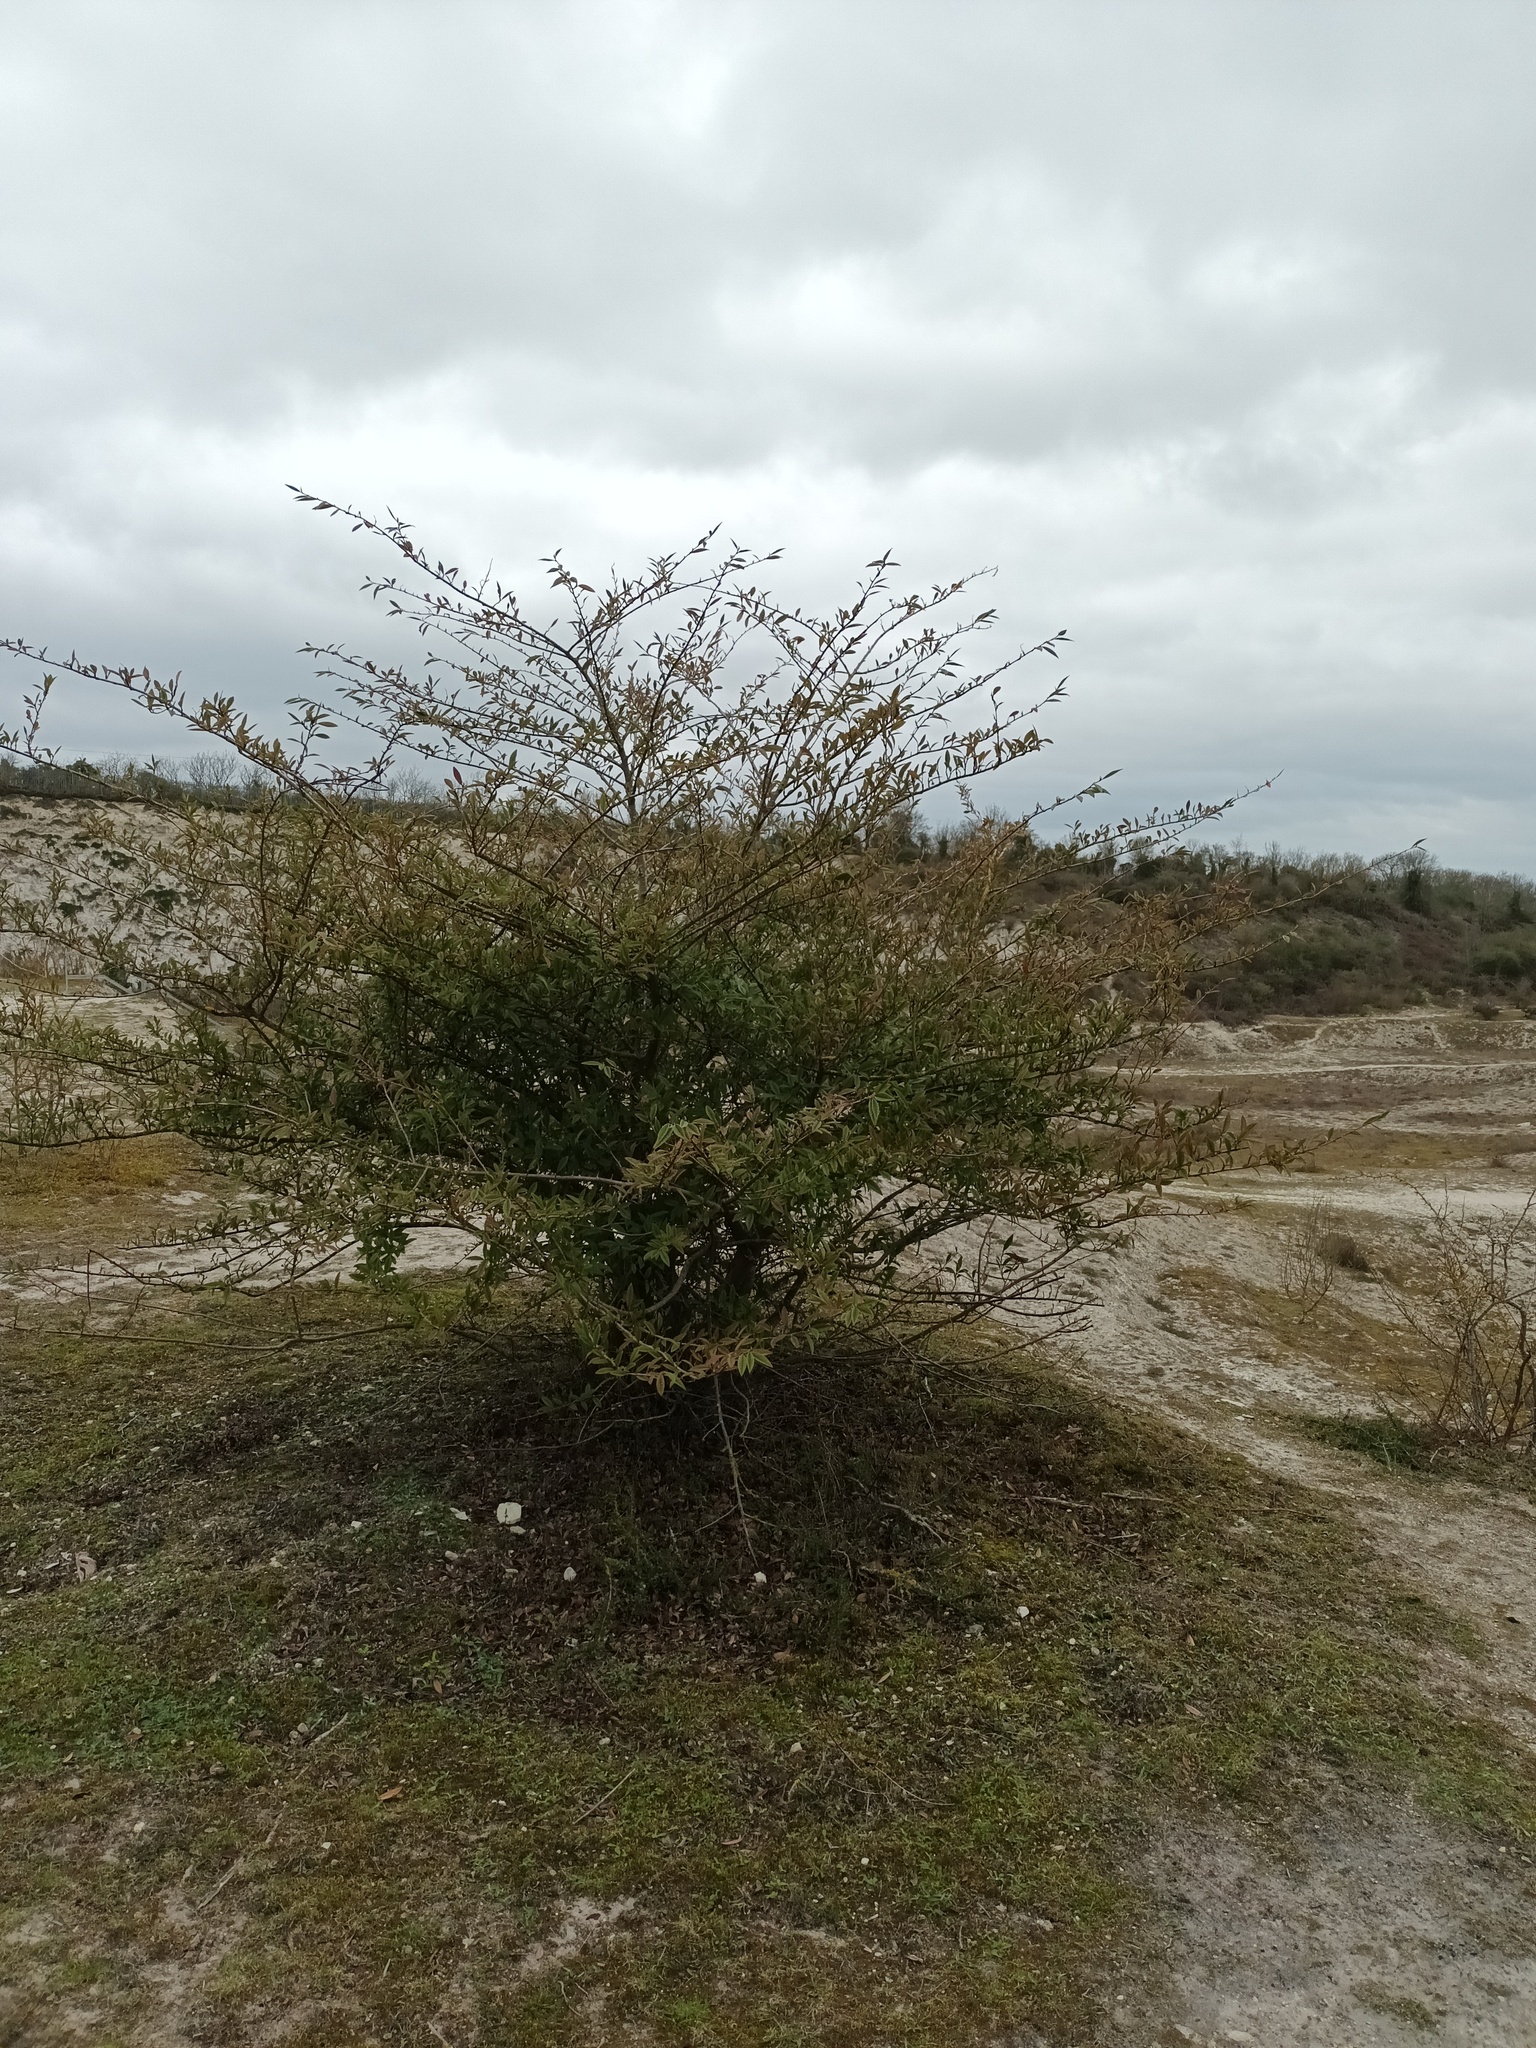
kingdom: Plantae
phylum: Tracheophyta
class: Magnoliopsida
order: Rosales
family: Rosaceae
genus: Cotoneaster
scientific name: Cotoneaster coriaceus
